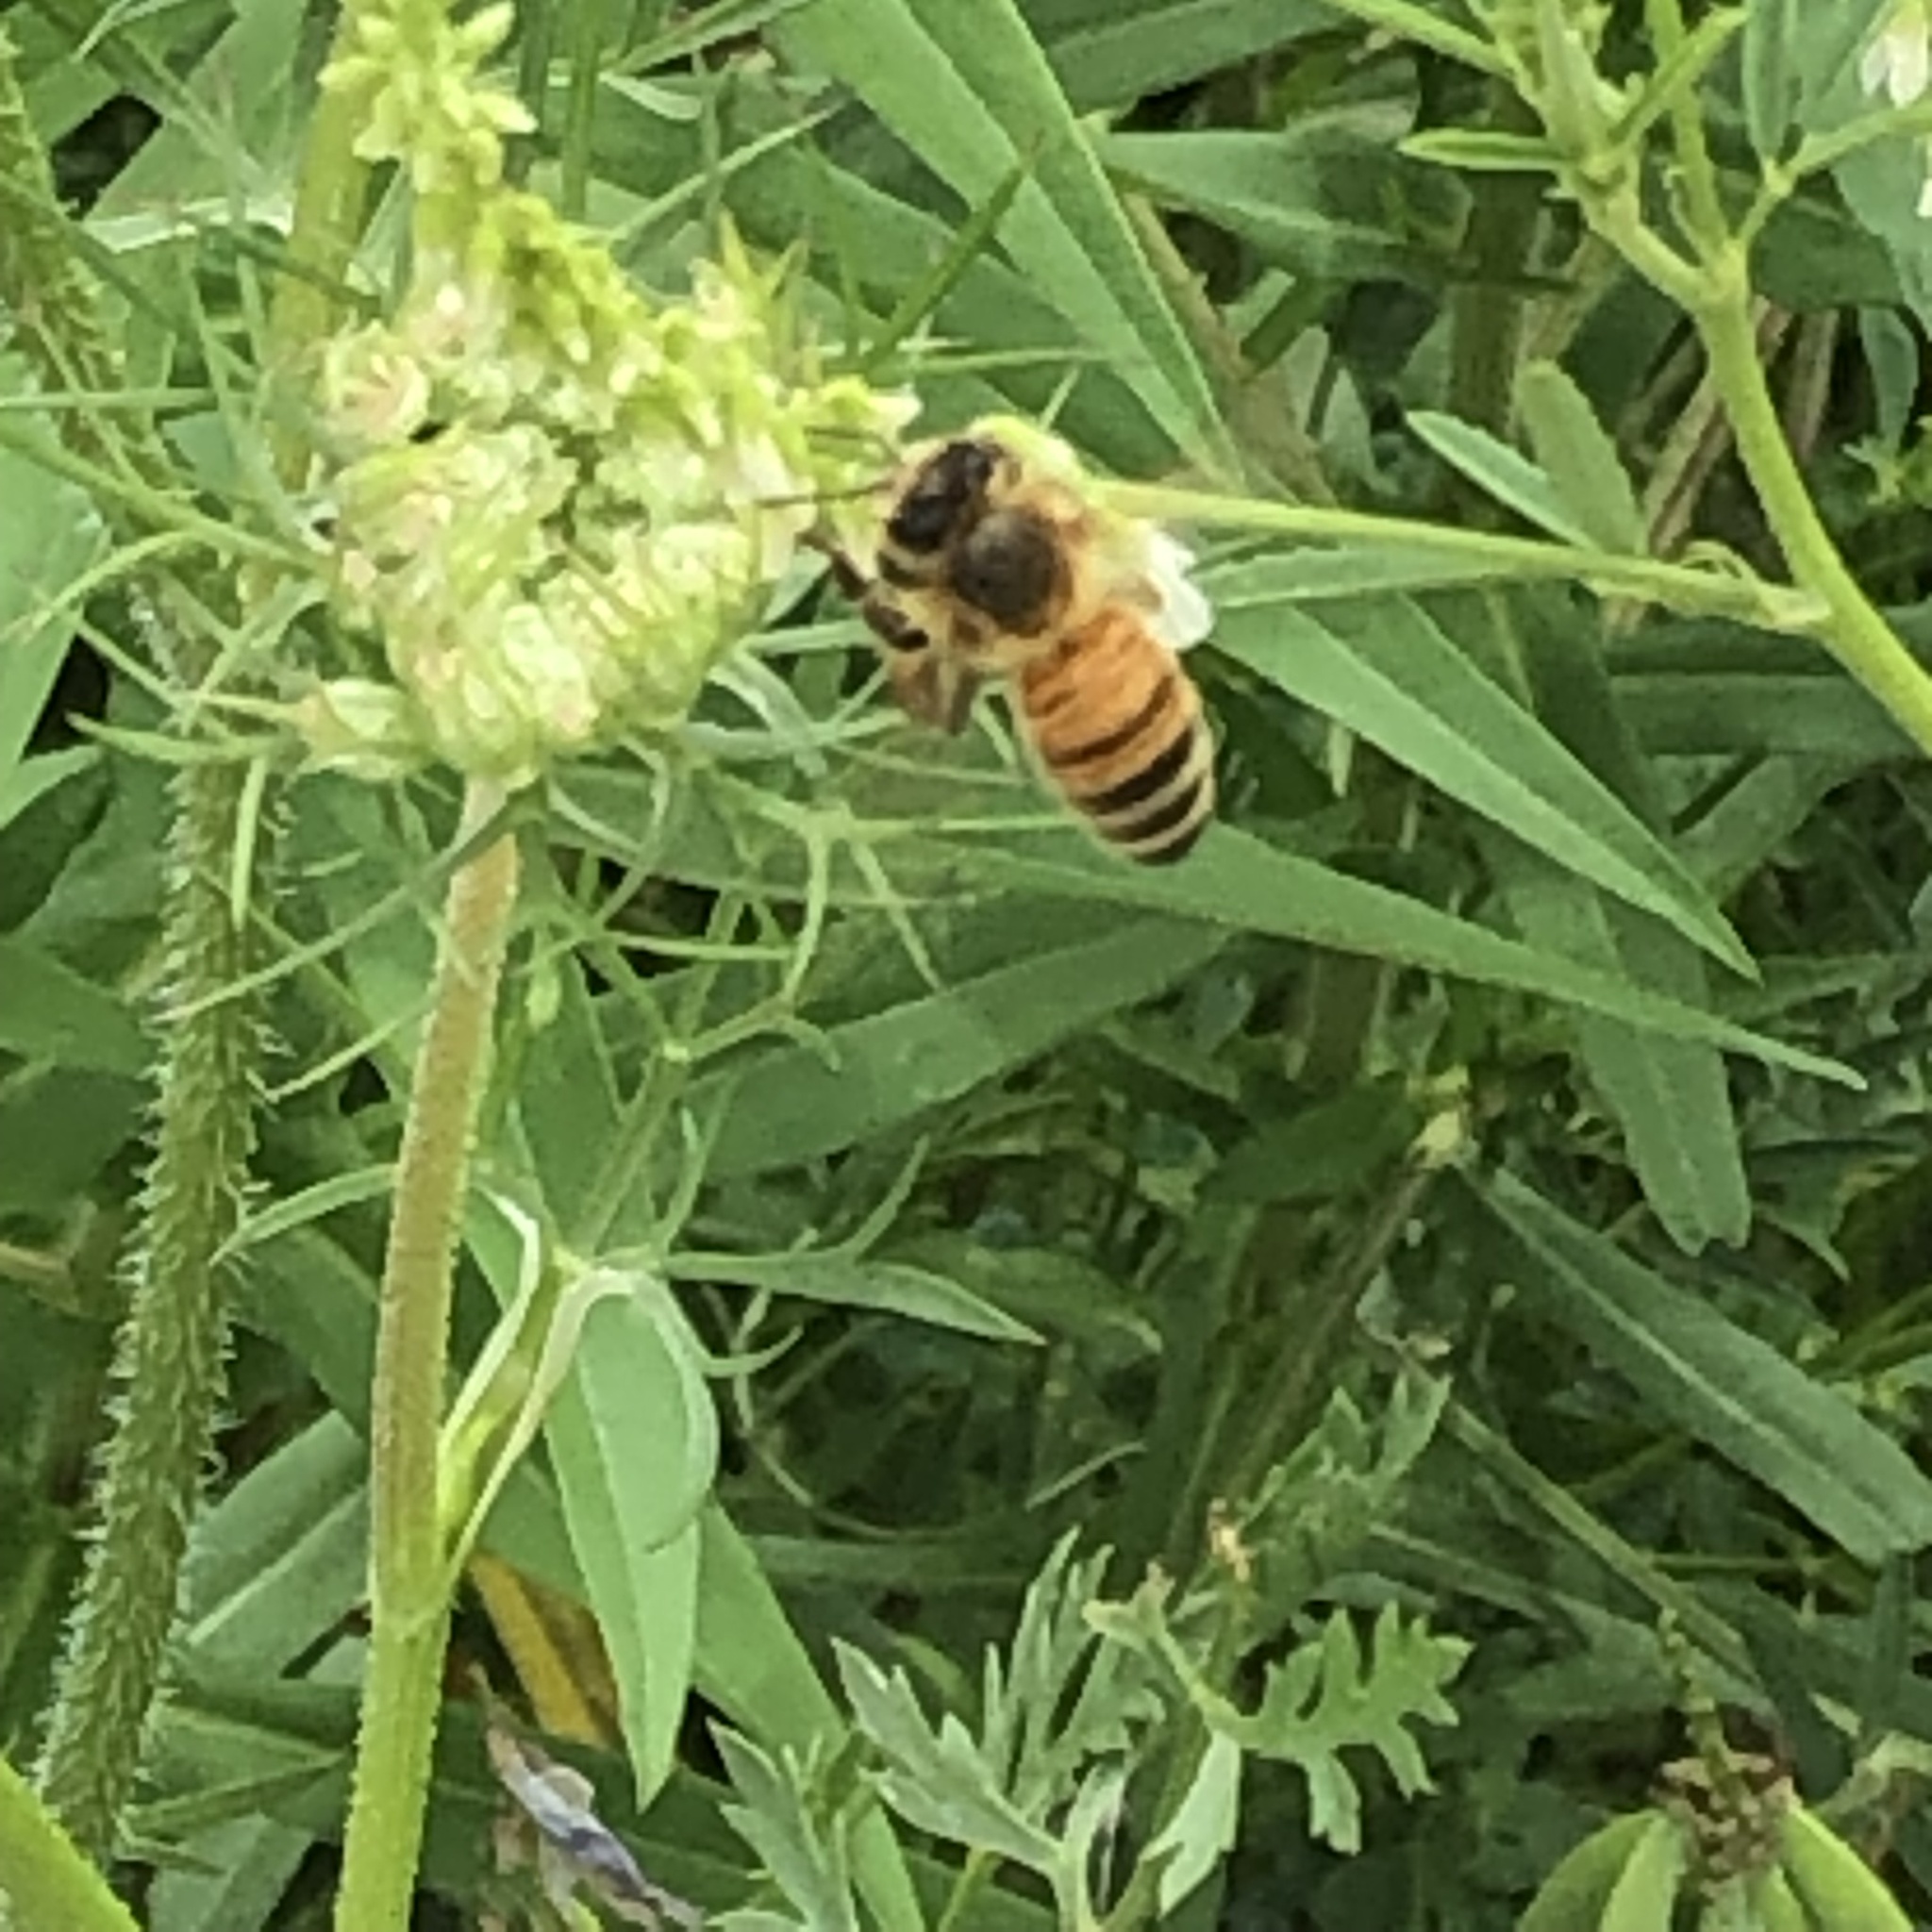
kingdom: Animalia
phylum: Arthropoda
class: Insecta
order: Hymenoptera
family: Apidae
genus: Apis
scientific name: Apis mellifera
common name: Honey bee
